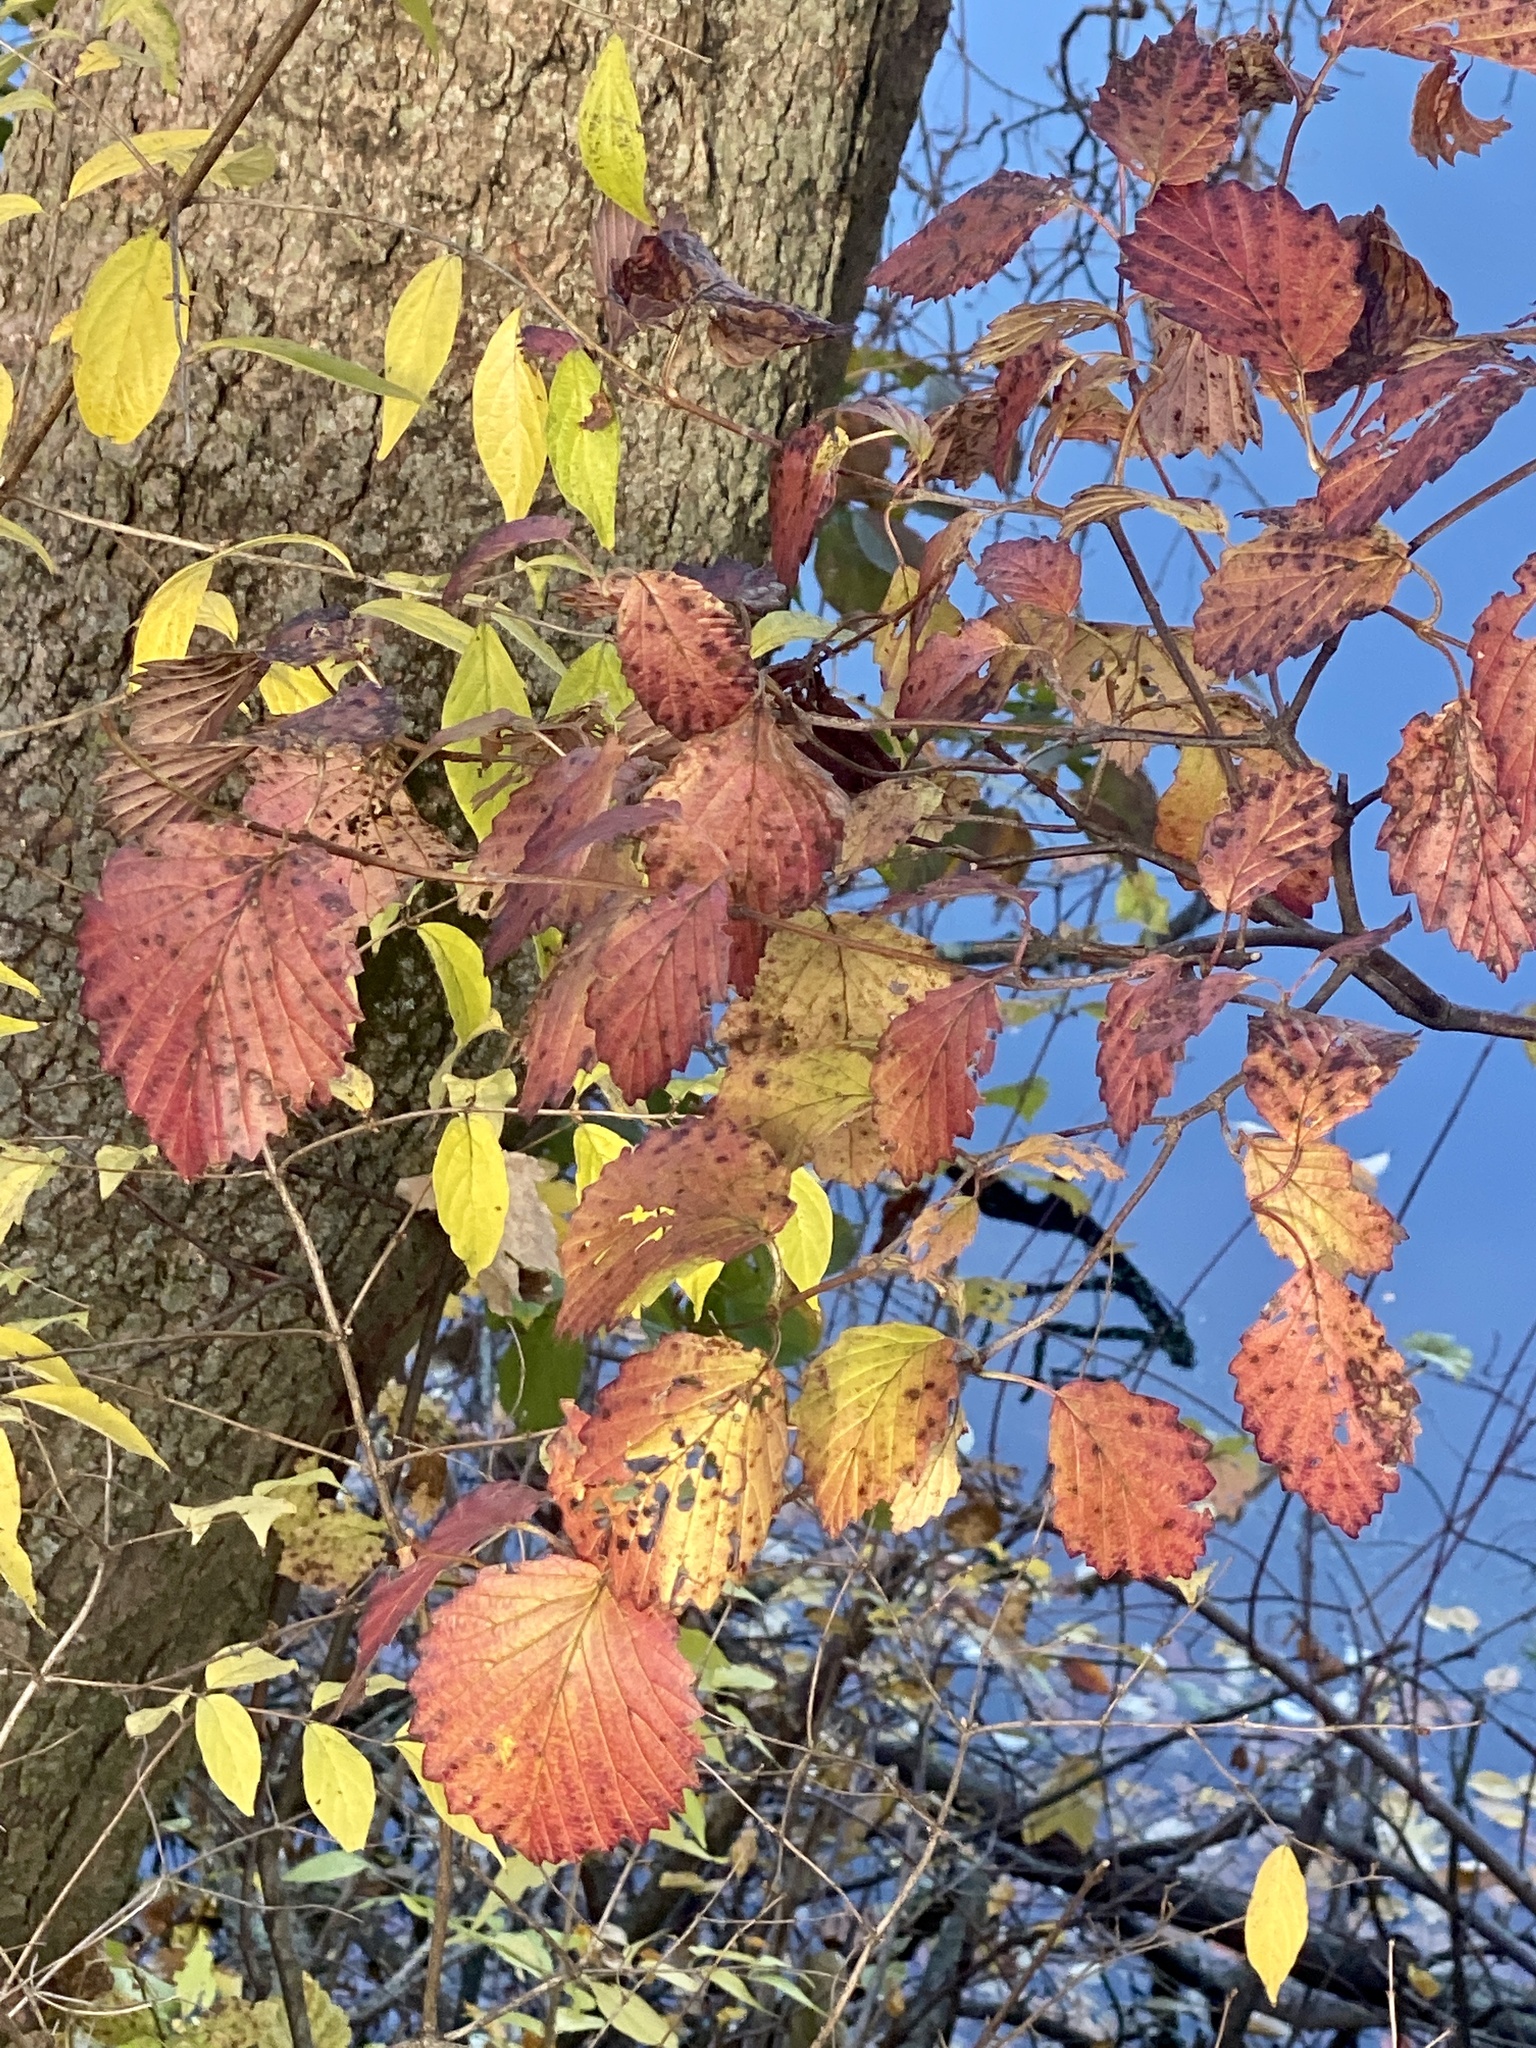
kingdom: Plantae
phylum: Tracheophyta
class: Magnoliopsida
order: Dipsacales
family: Viburnaceae
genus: Viburnum
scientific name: Viburnum dentatum
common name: Arrow-wood
